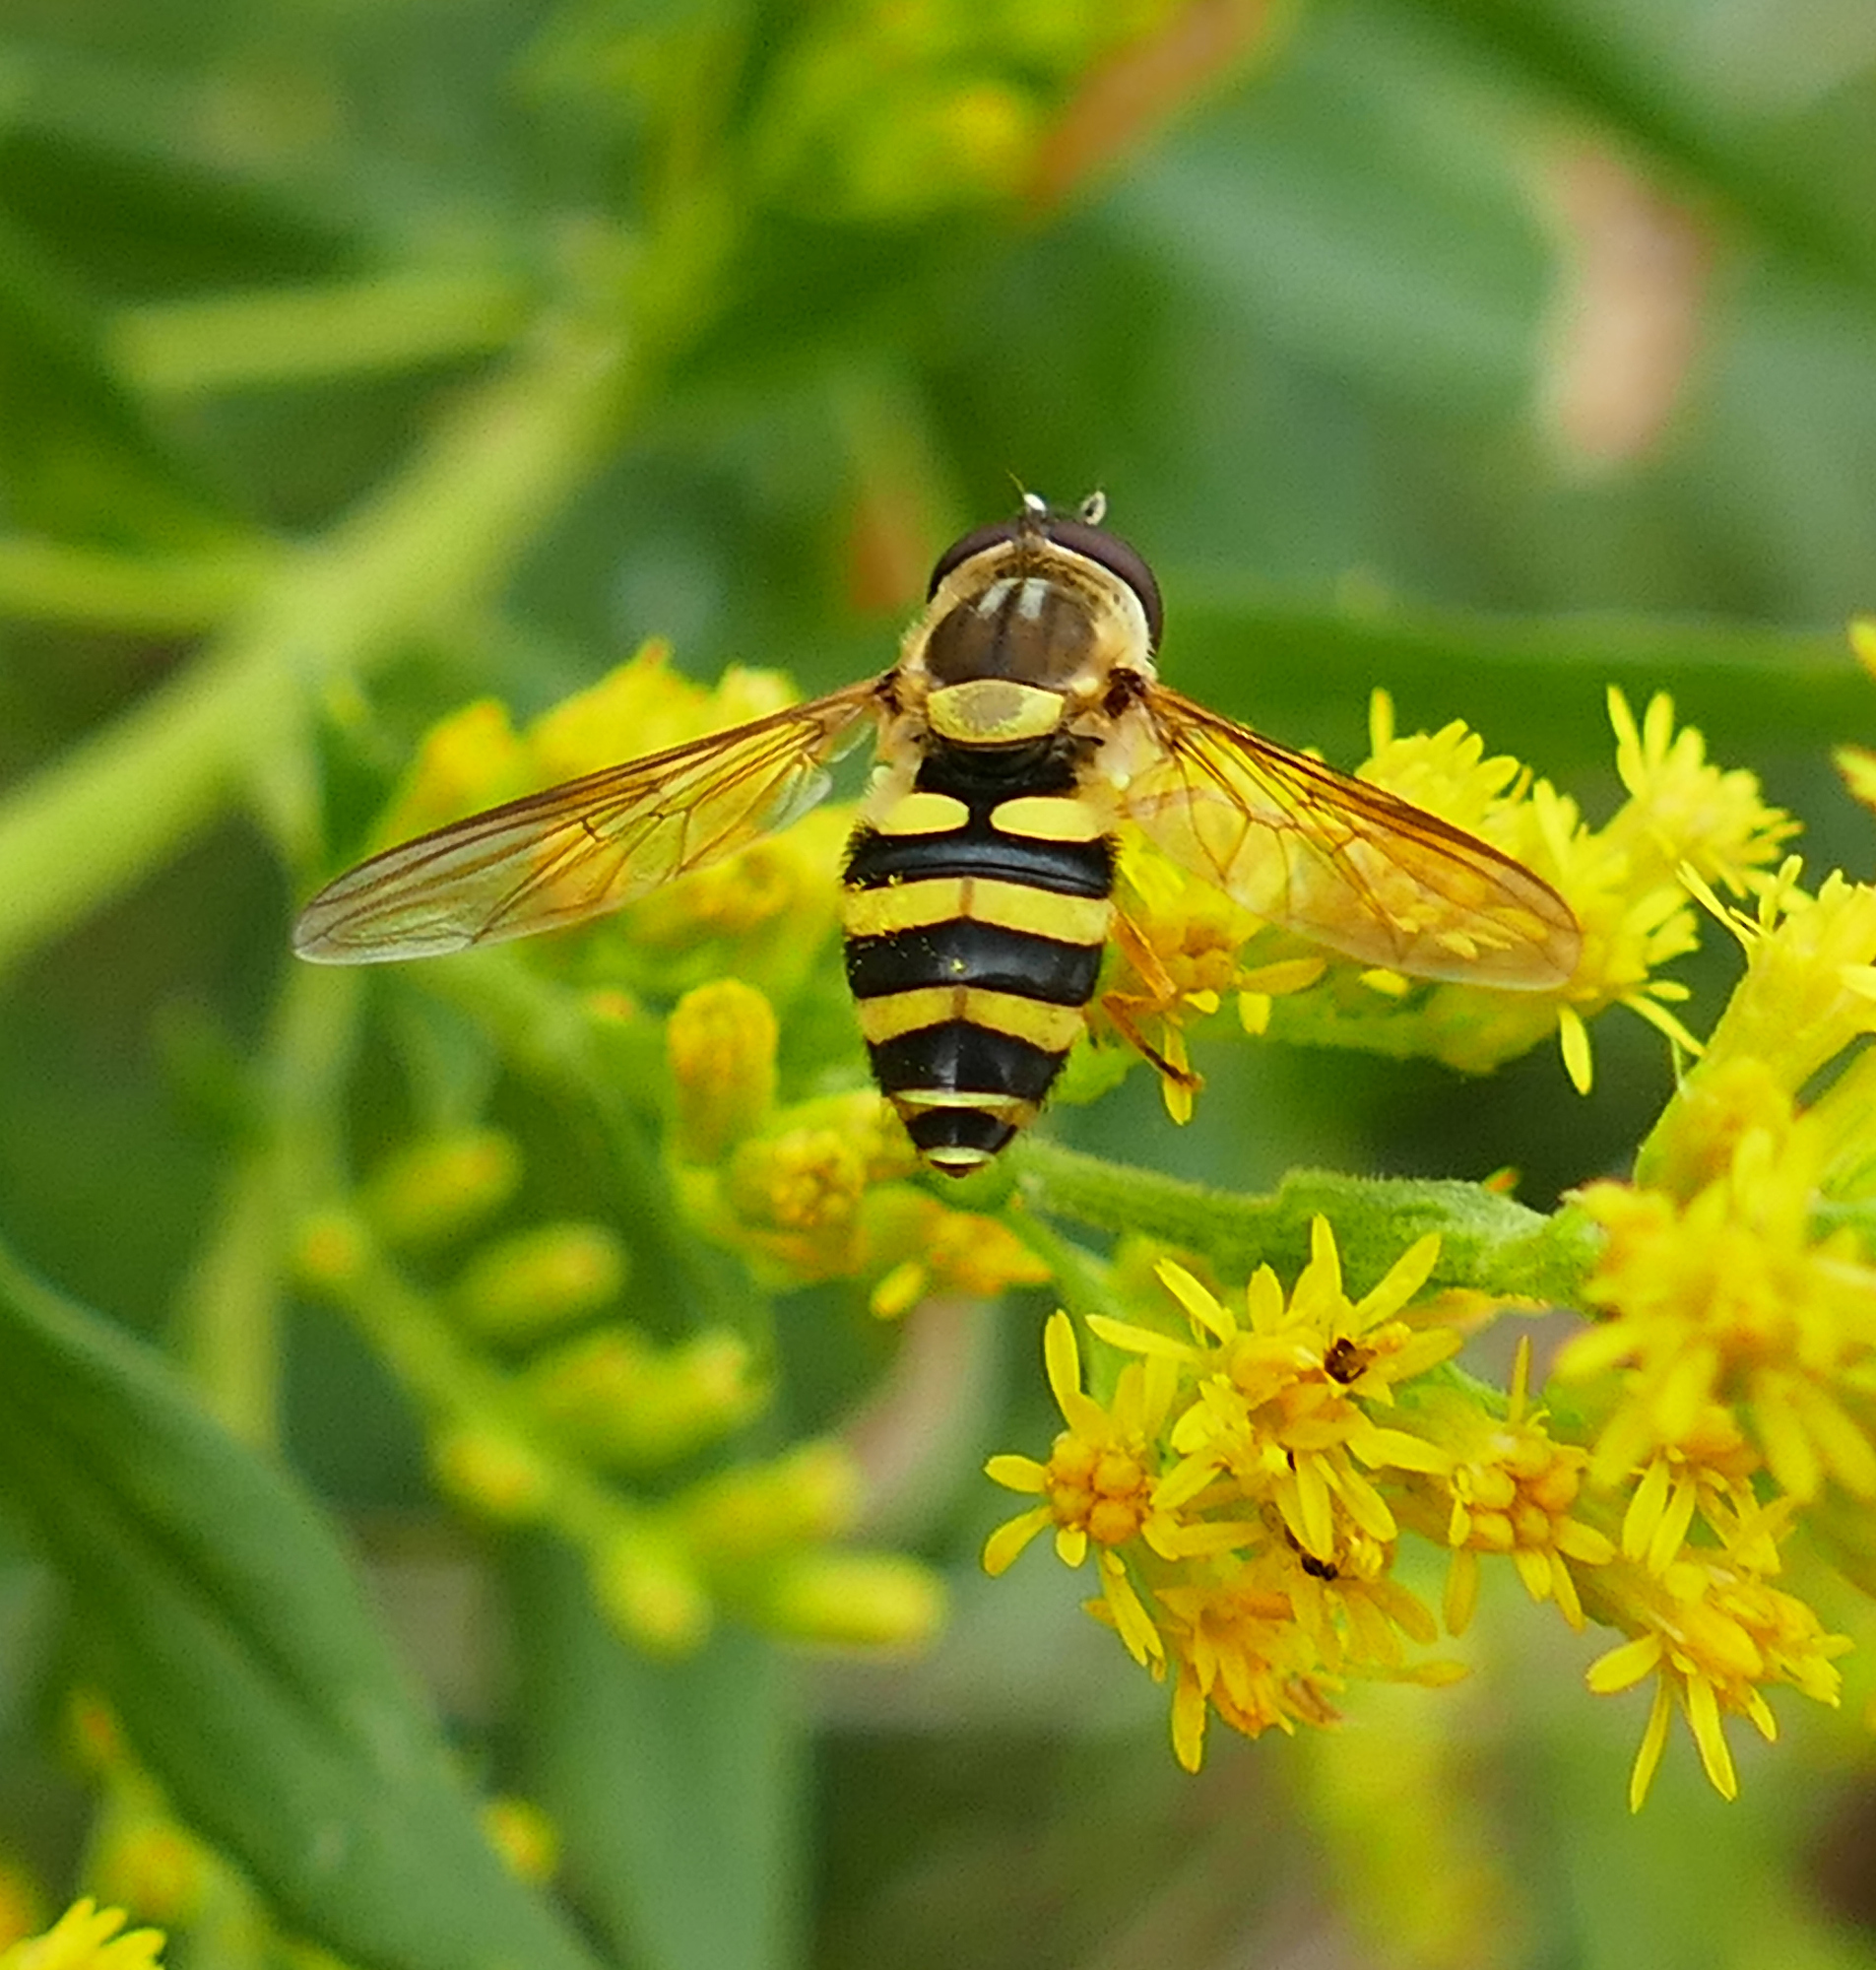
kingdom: Animalia
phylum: Arthropoda
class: Insecta
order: Diptera
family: Syrphidae
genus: Syrphus
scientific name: Syrphus rectus
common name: Yellow-legged flower fly
